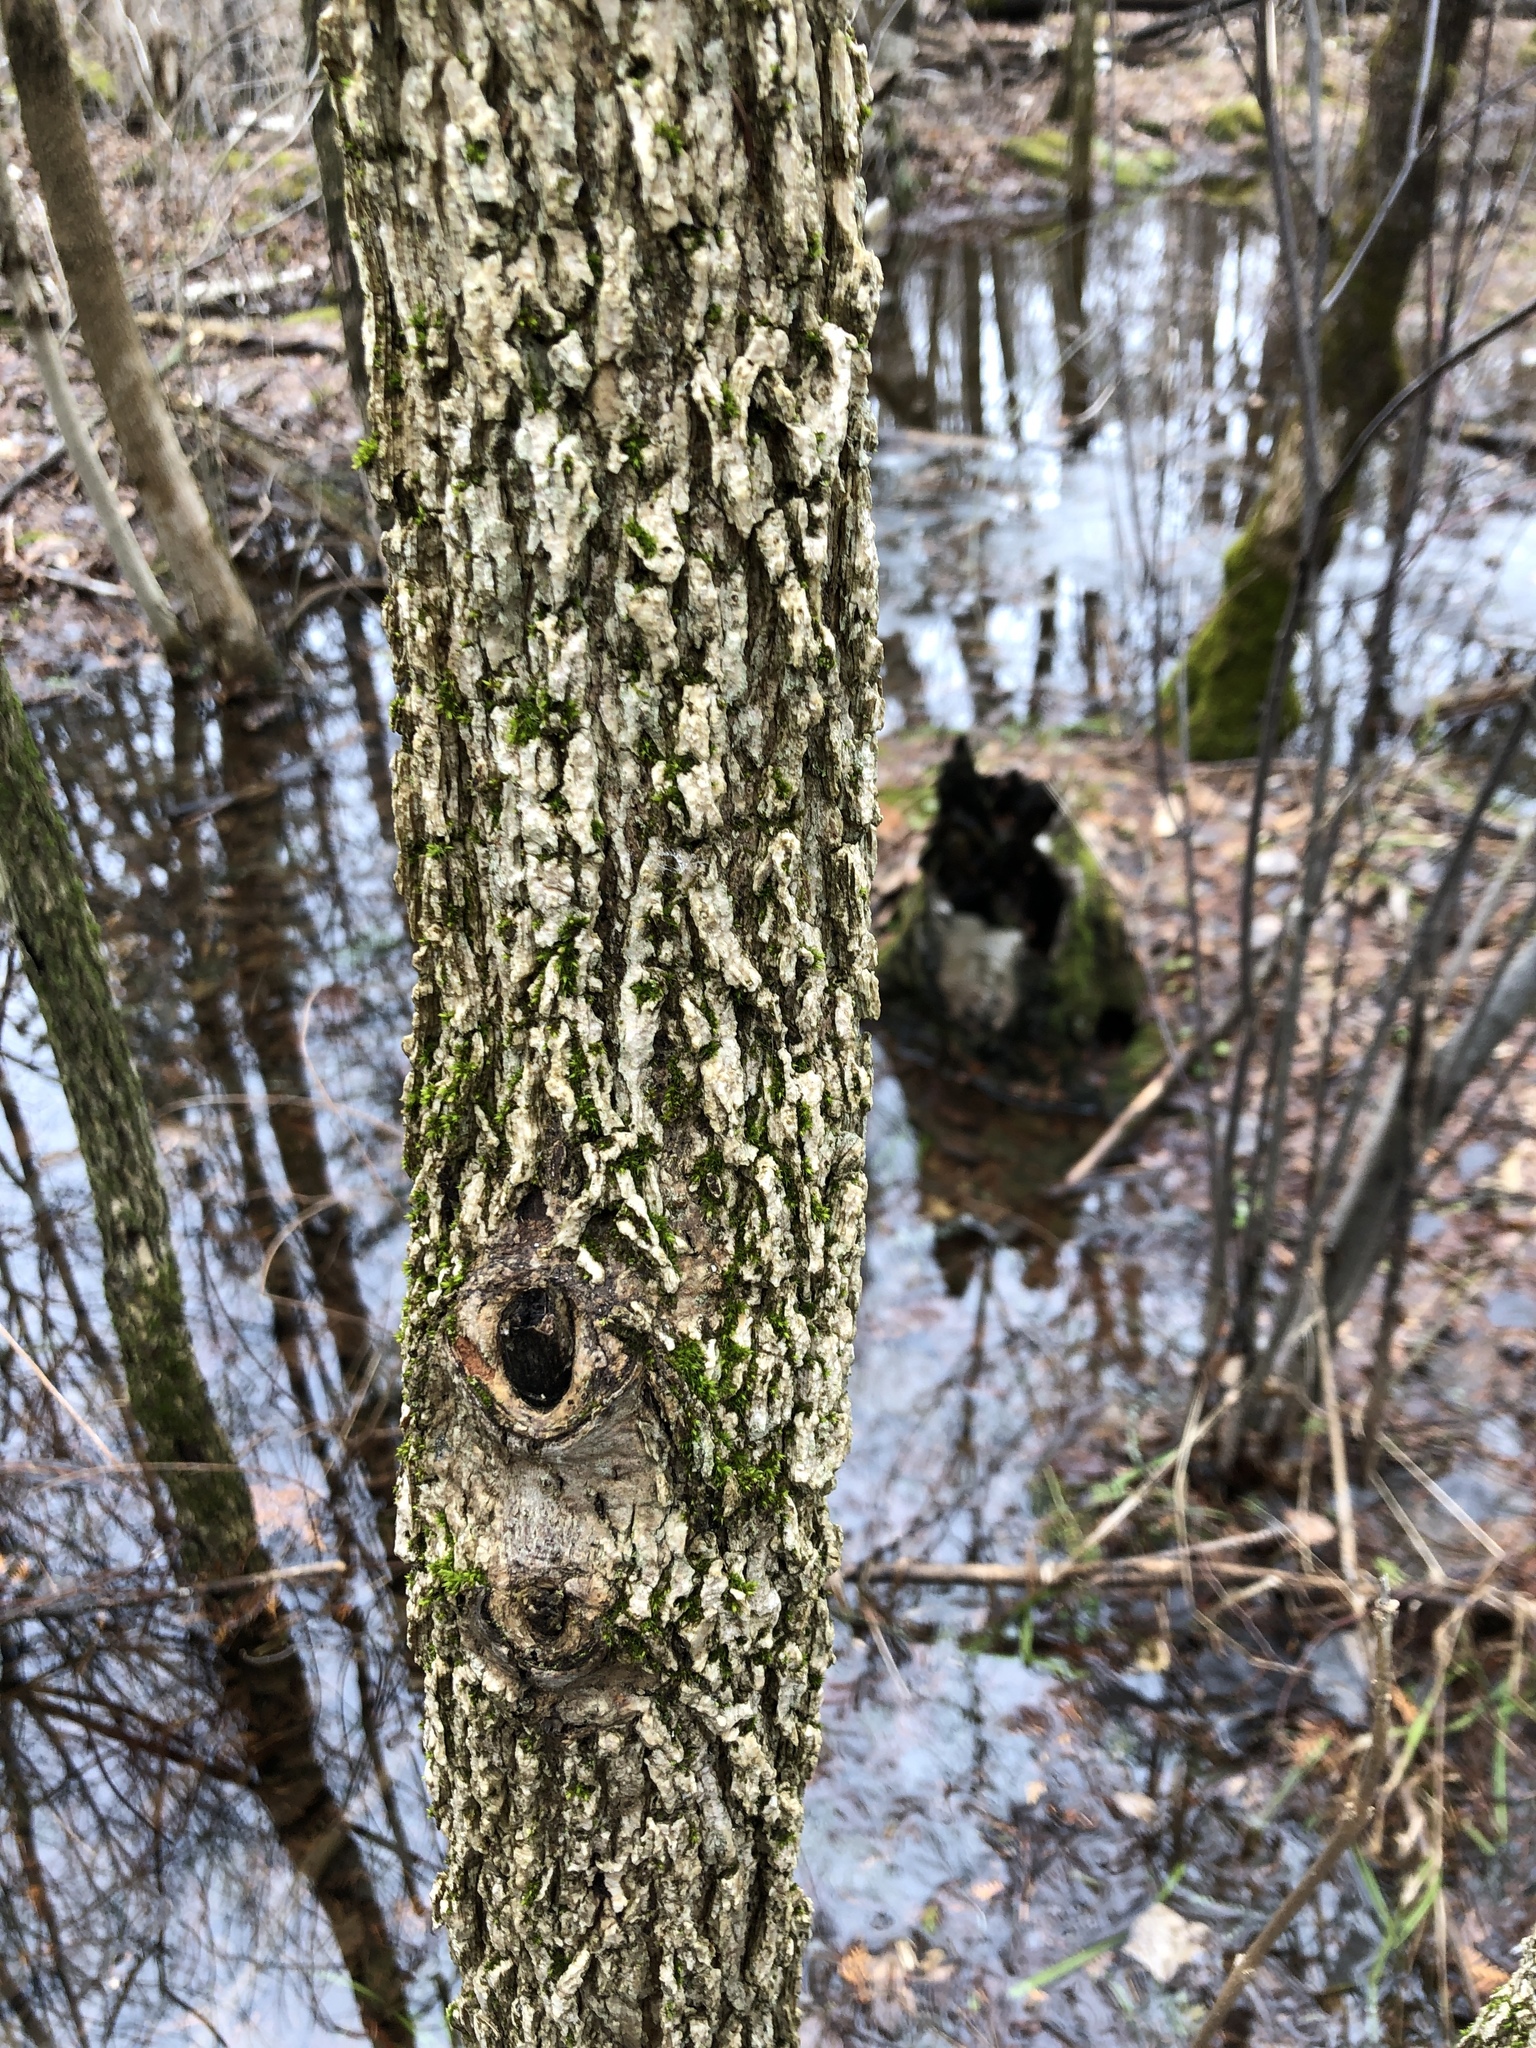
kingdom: Plantae
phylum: Tracheophyta
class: Magnoliopsida
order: Lamiales
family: Oleaceae
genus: Fraxinus
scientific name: Fraxinus nigra
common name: Black ash
